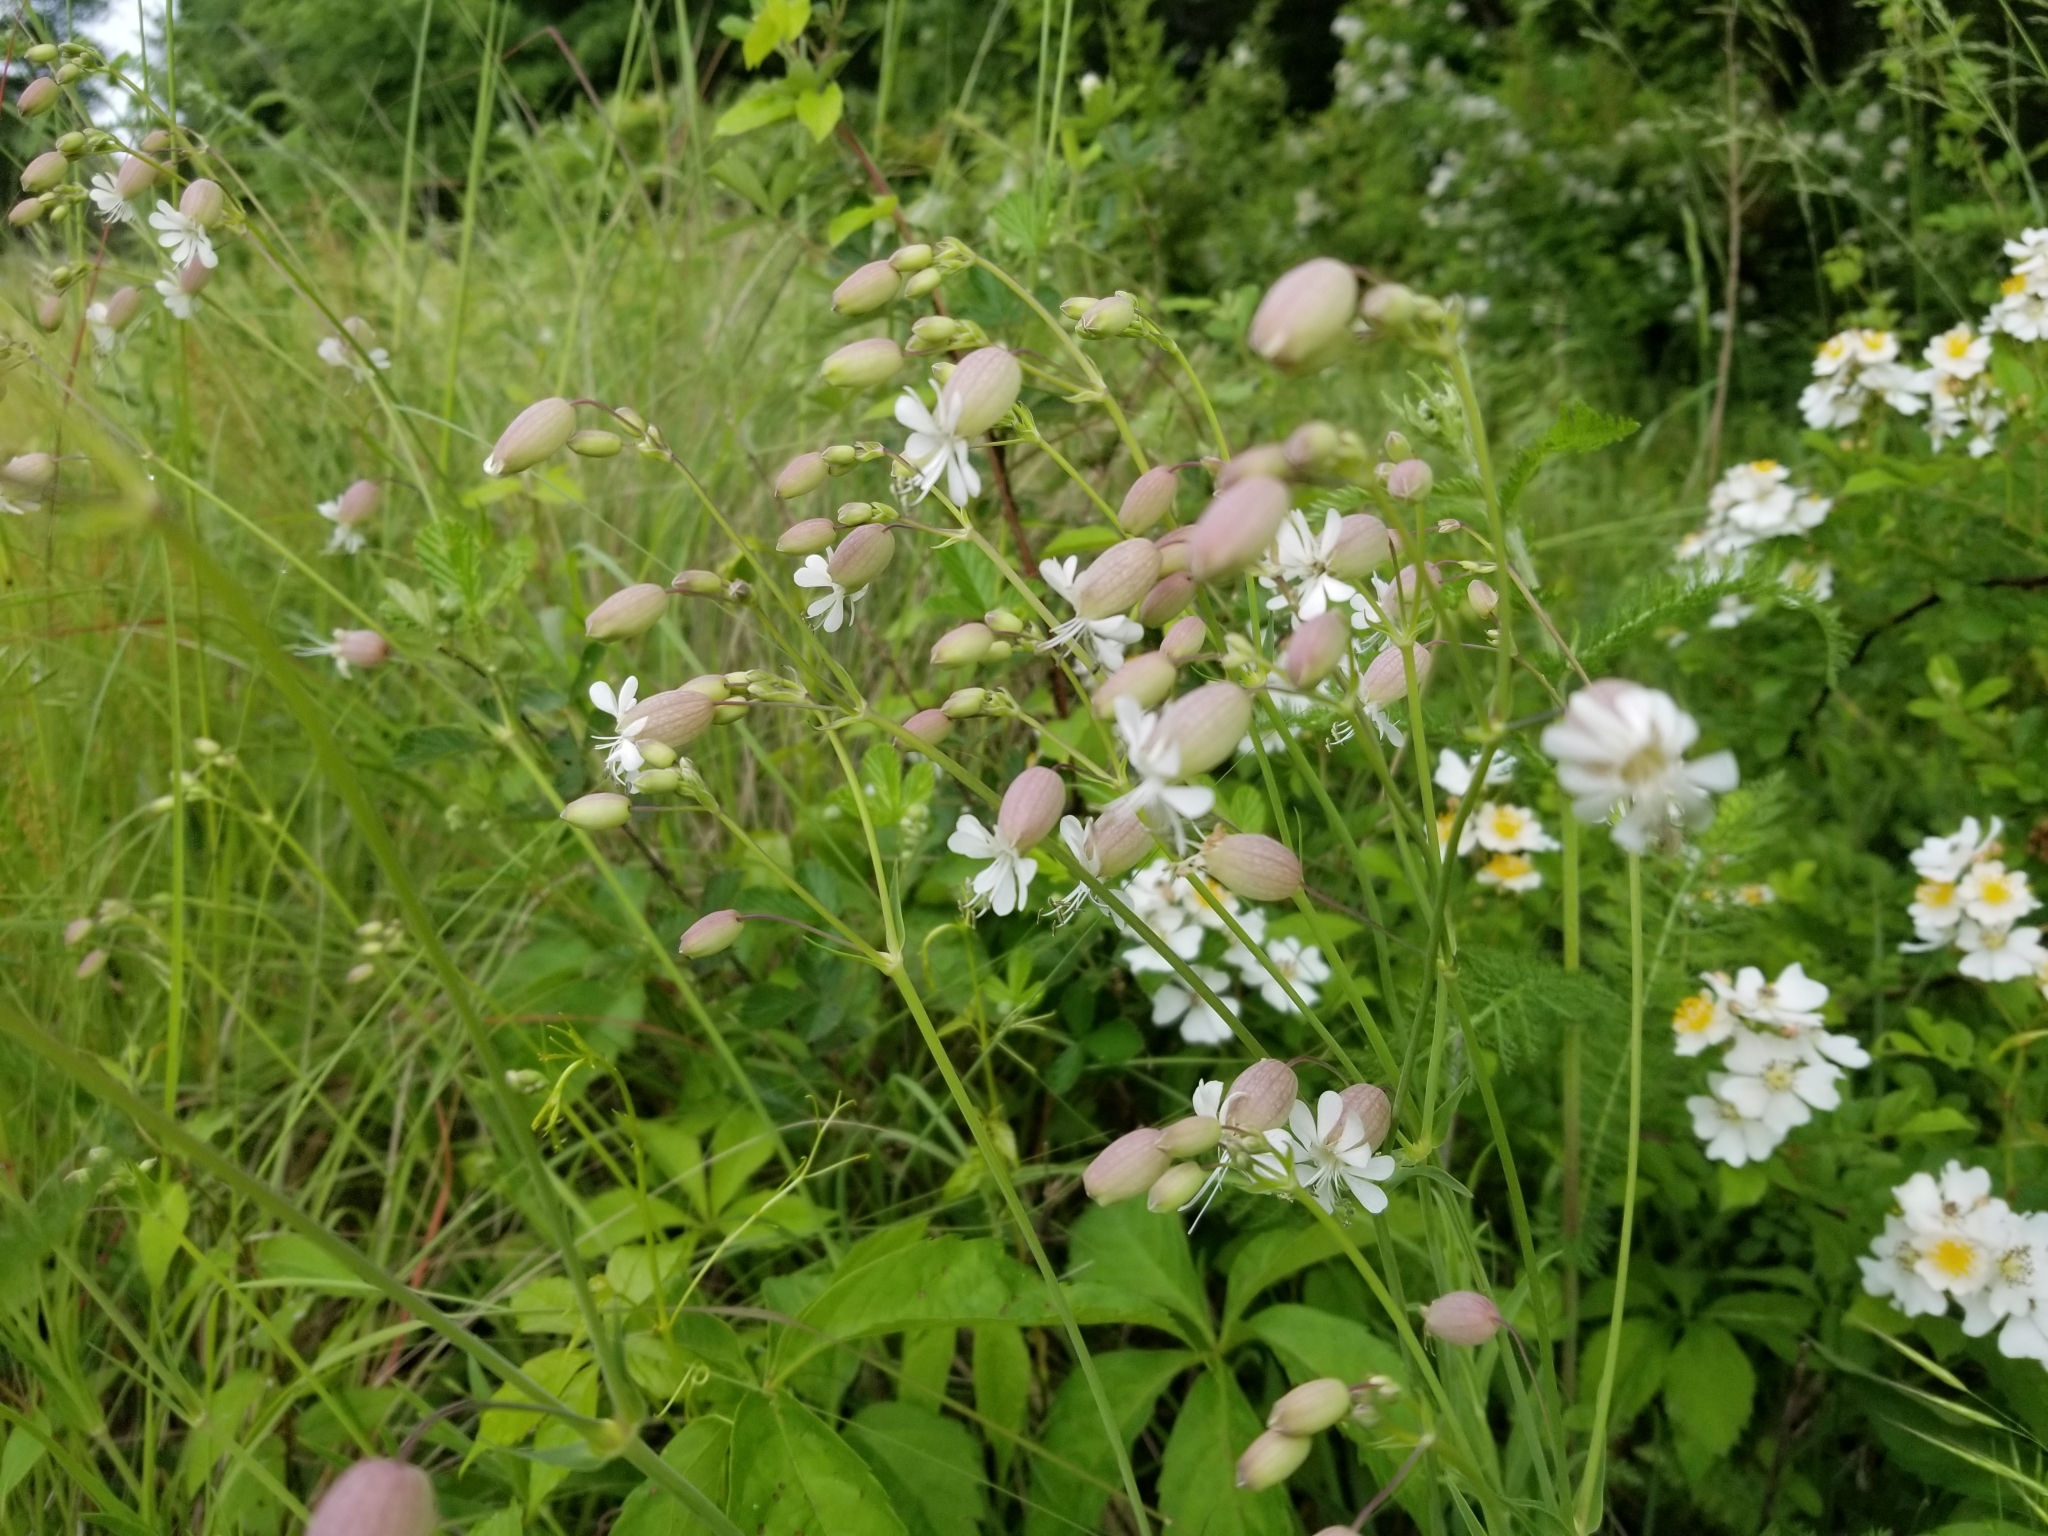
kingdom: Plantae
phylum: Tracheophyta
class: Magnoliopsida
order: Caryophyllales
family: Caryophyllaceae
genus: Silene
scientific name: Silene vulgaris
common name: Bladder campion
